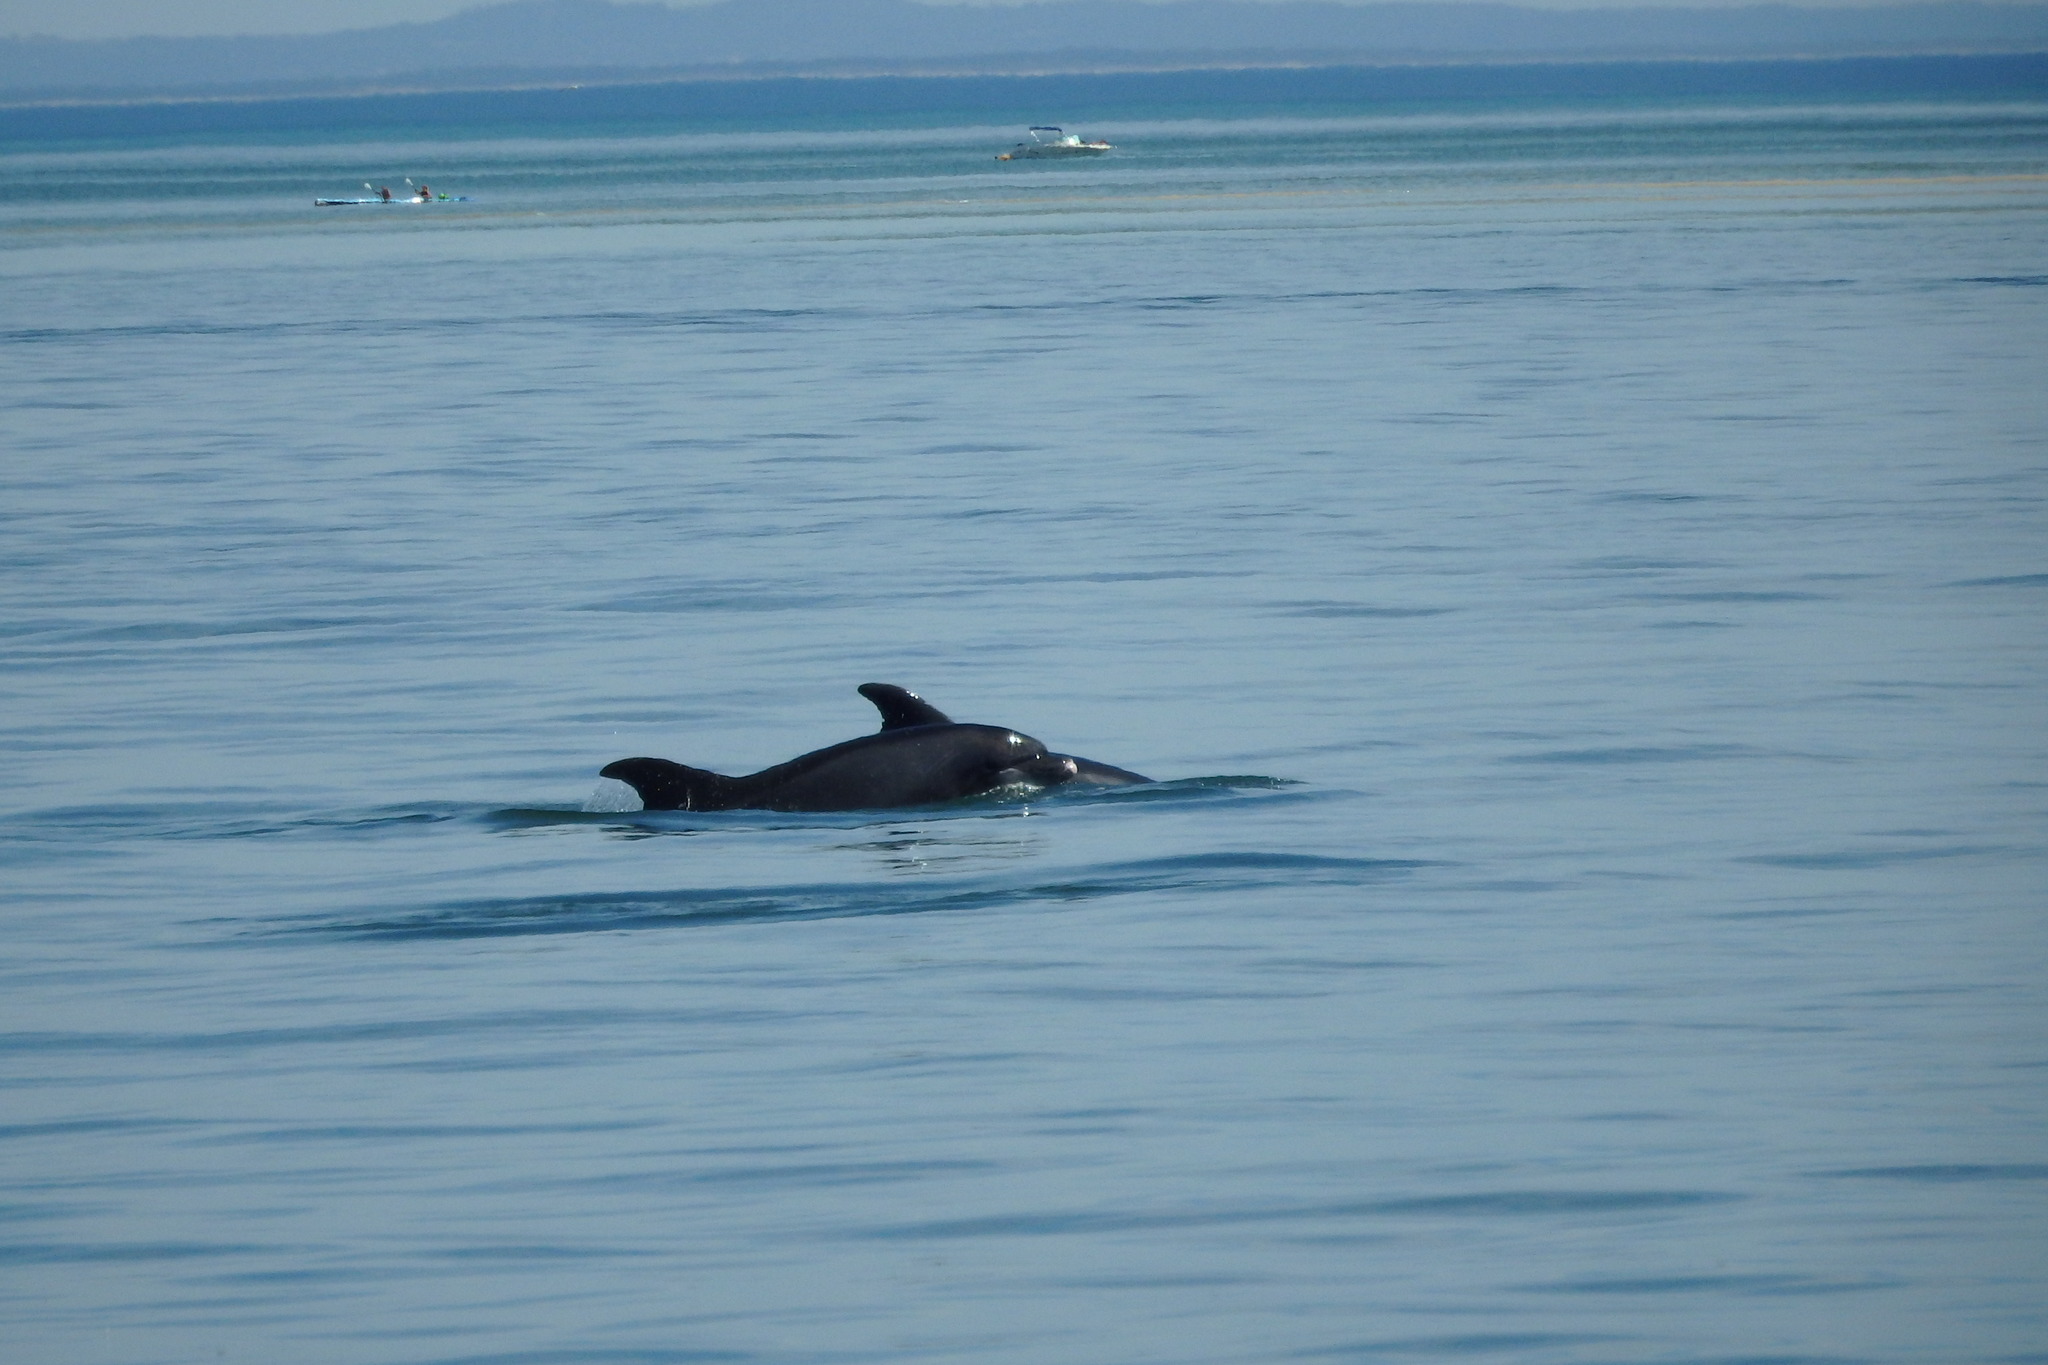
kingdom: Animalia
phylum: Chordata
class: Mammalia
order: Cetacea
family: Delphinidae
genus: Tursiops
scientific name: Tursiops truncatus
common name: Bottlenose dolphin
